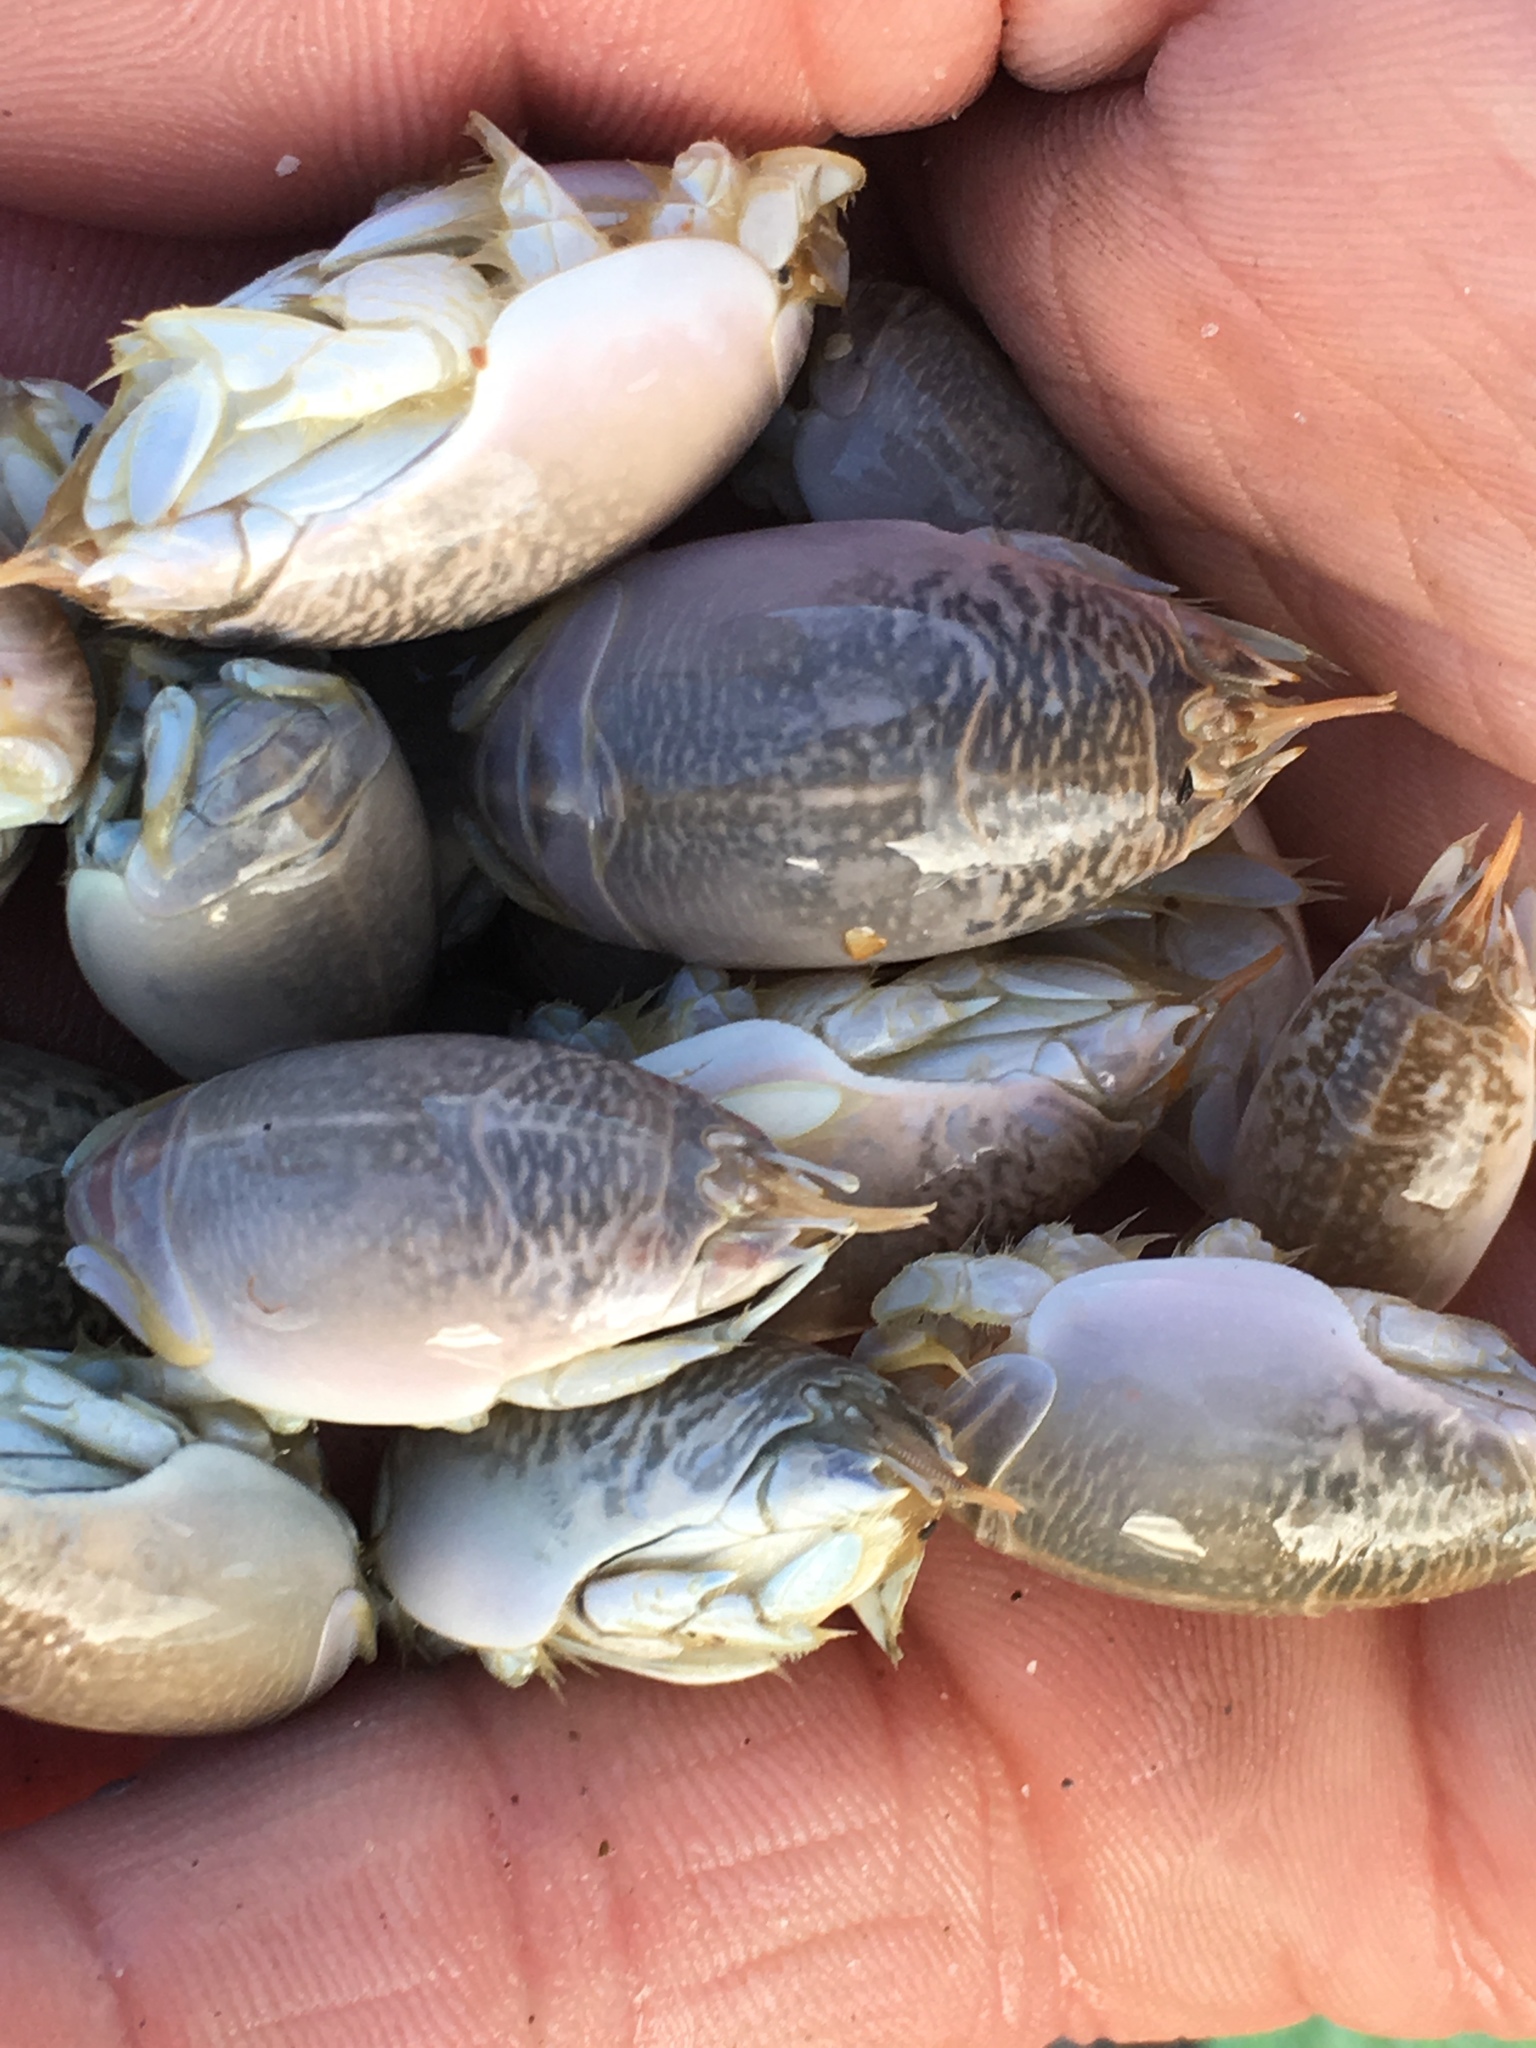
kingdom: Animalia
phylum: Arthropoda
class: Malacostraca
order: Decapoda
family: Hippidae
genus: Emerita
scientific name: Emerita talpoida
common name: Atlantic sand crab
